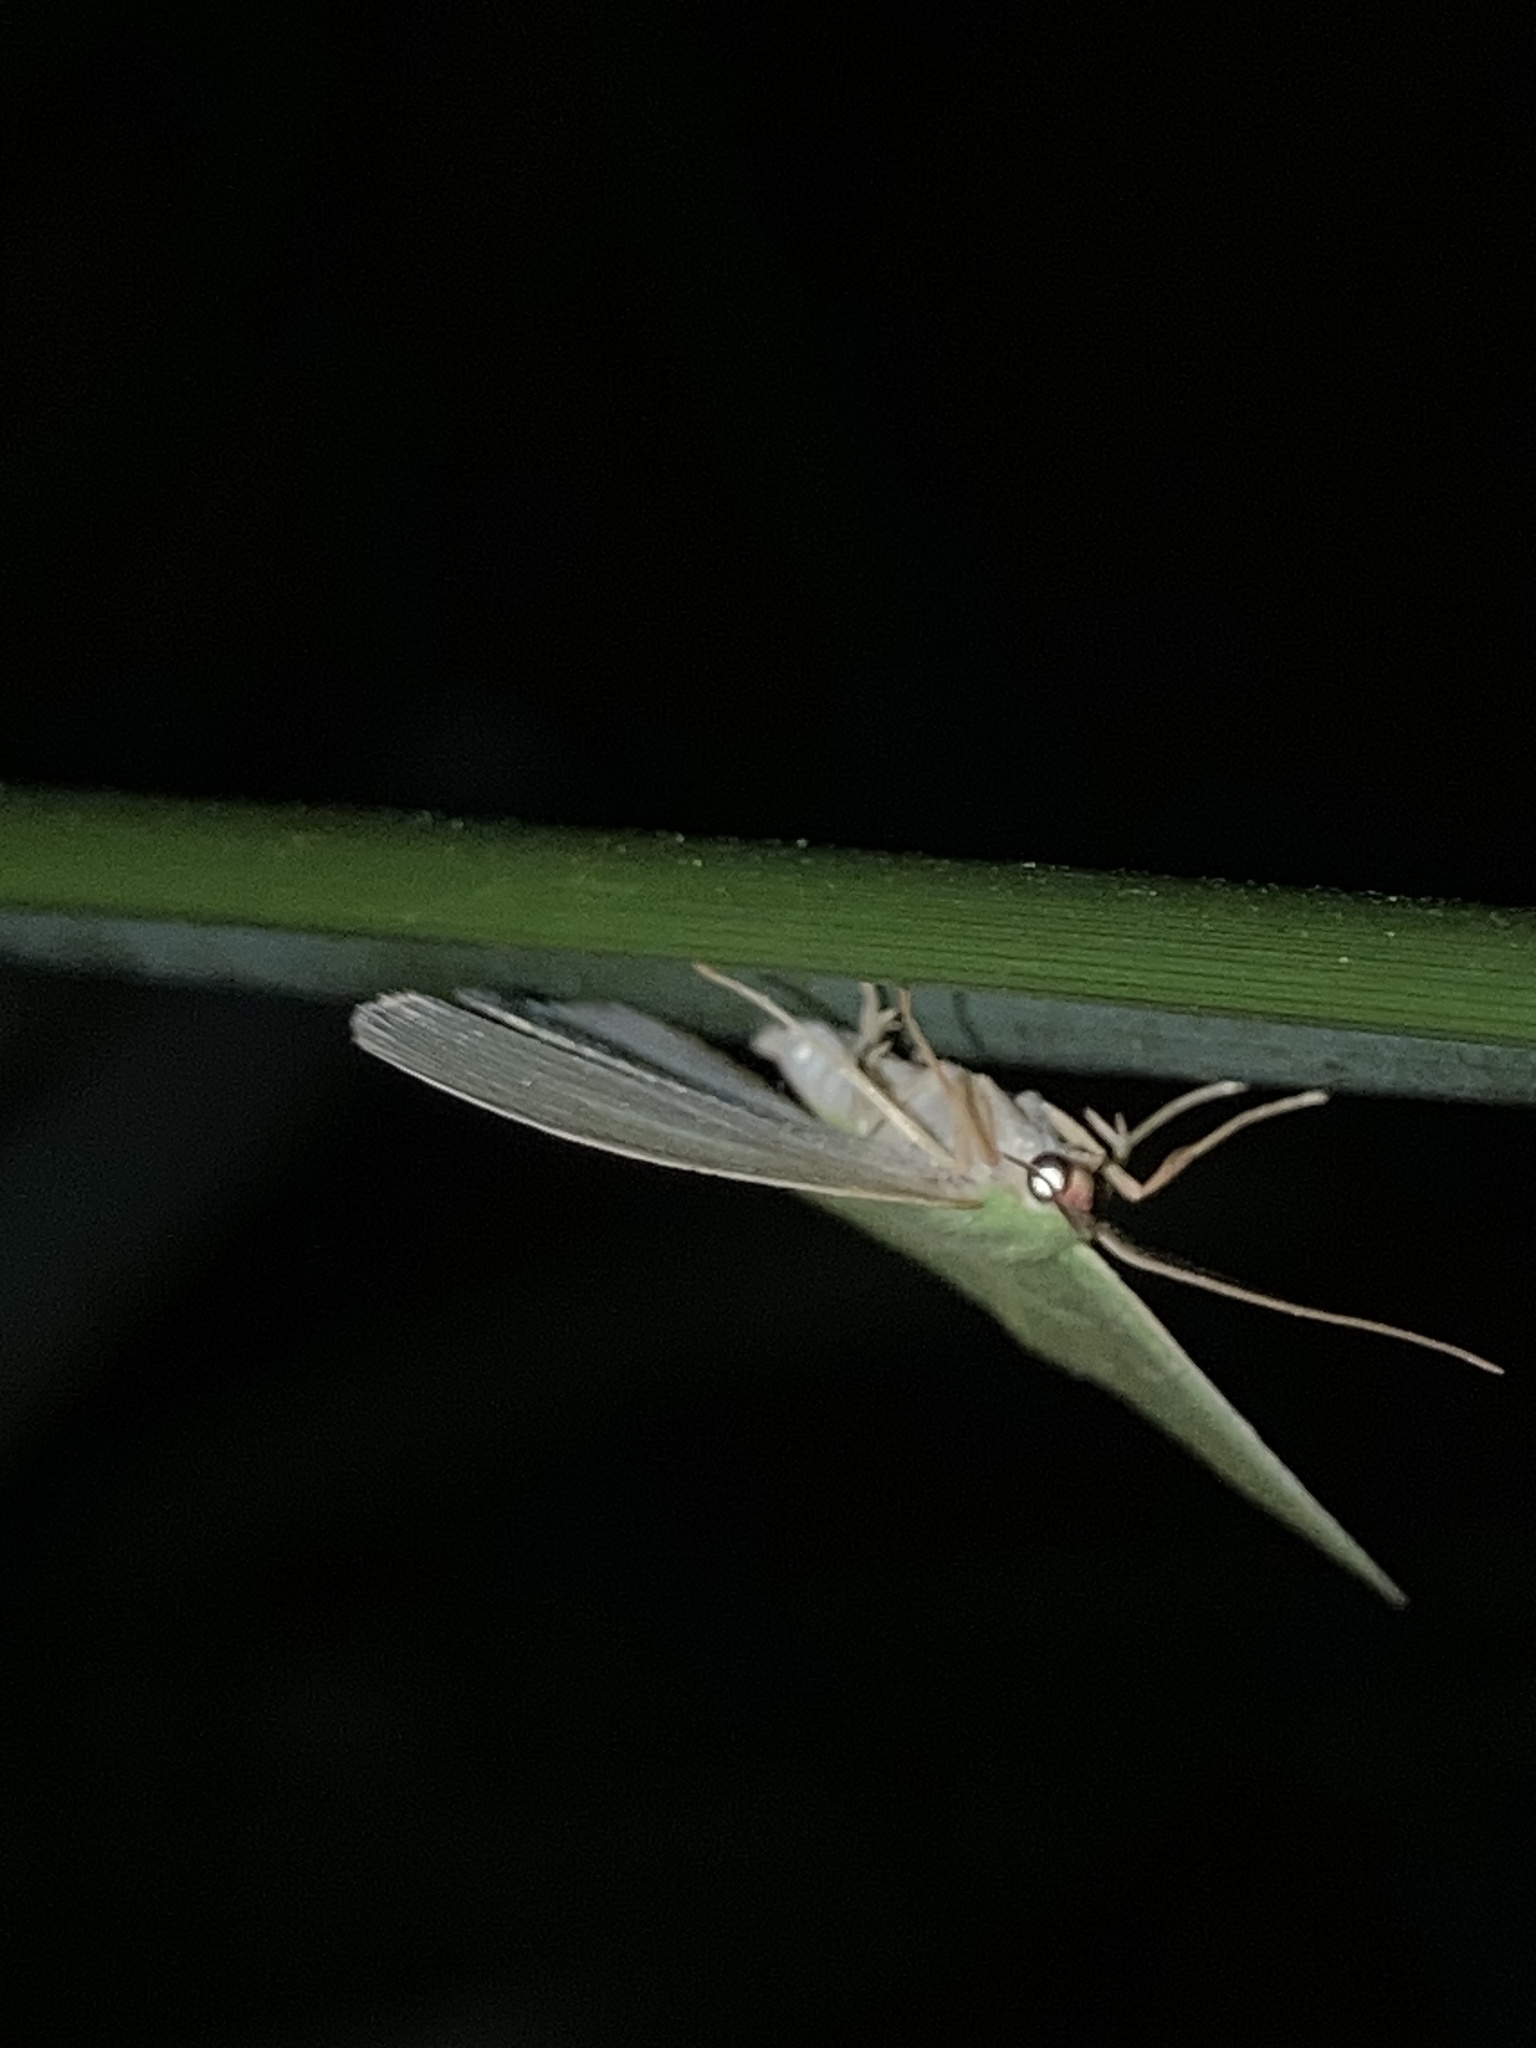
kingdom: Animalia
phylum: Arthropoda
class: Insecta
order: Lepidoptera
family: Geometridae
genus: Urolitha
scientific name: Urolitha bipunctifera
